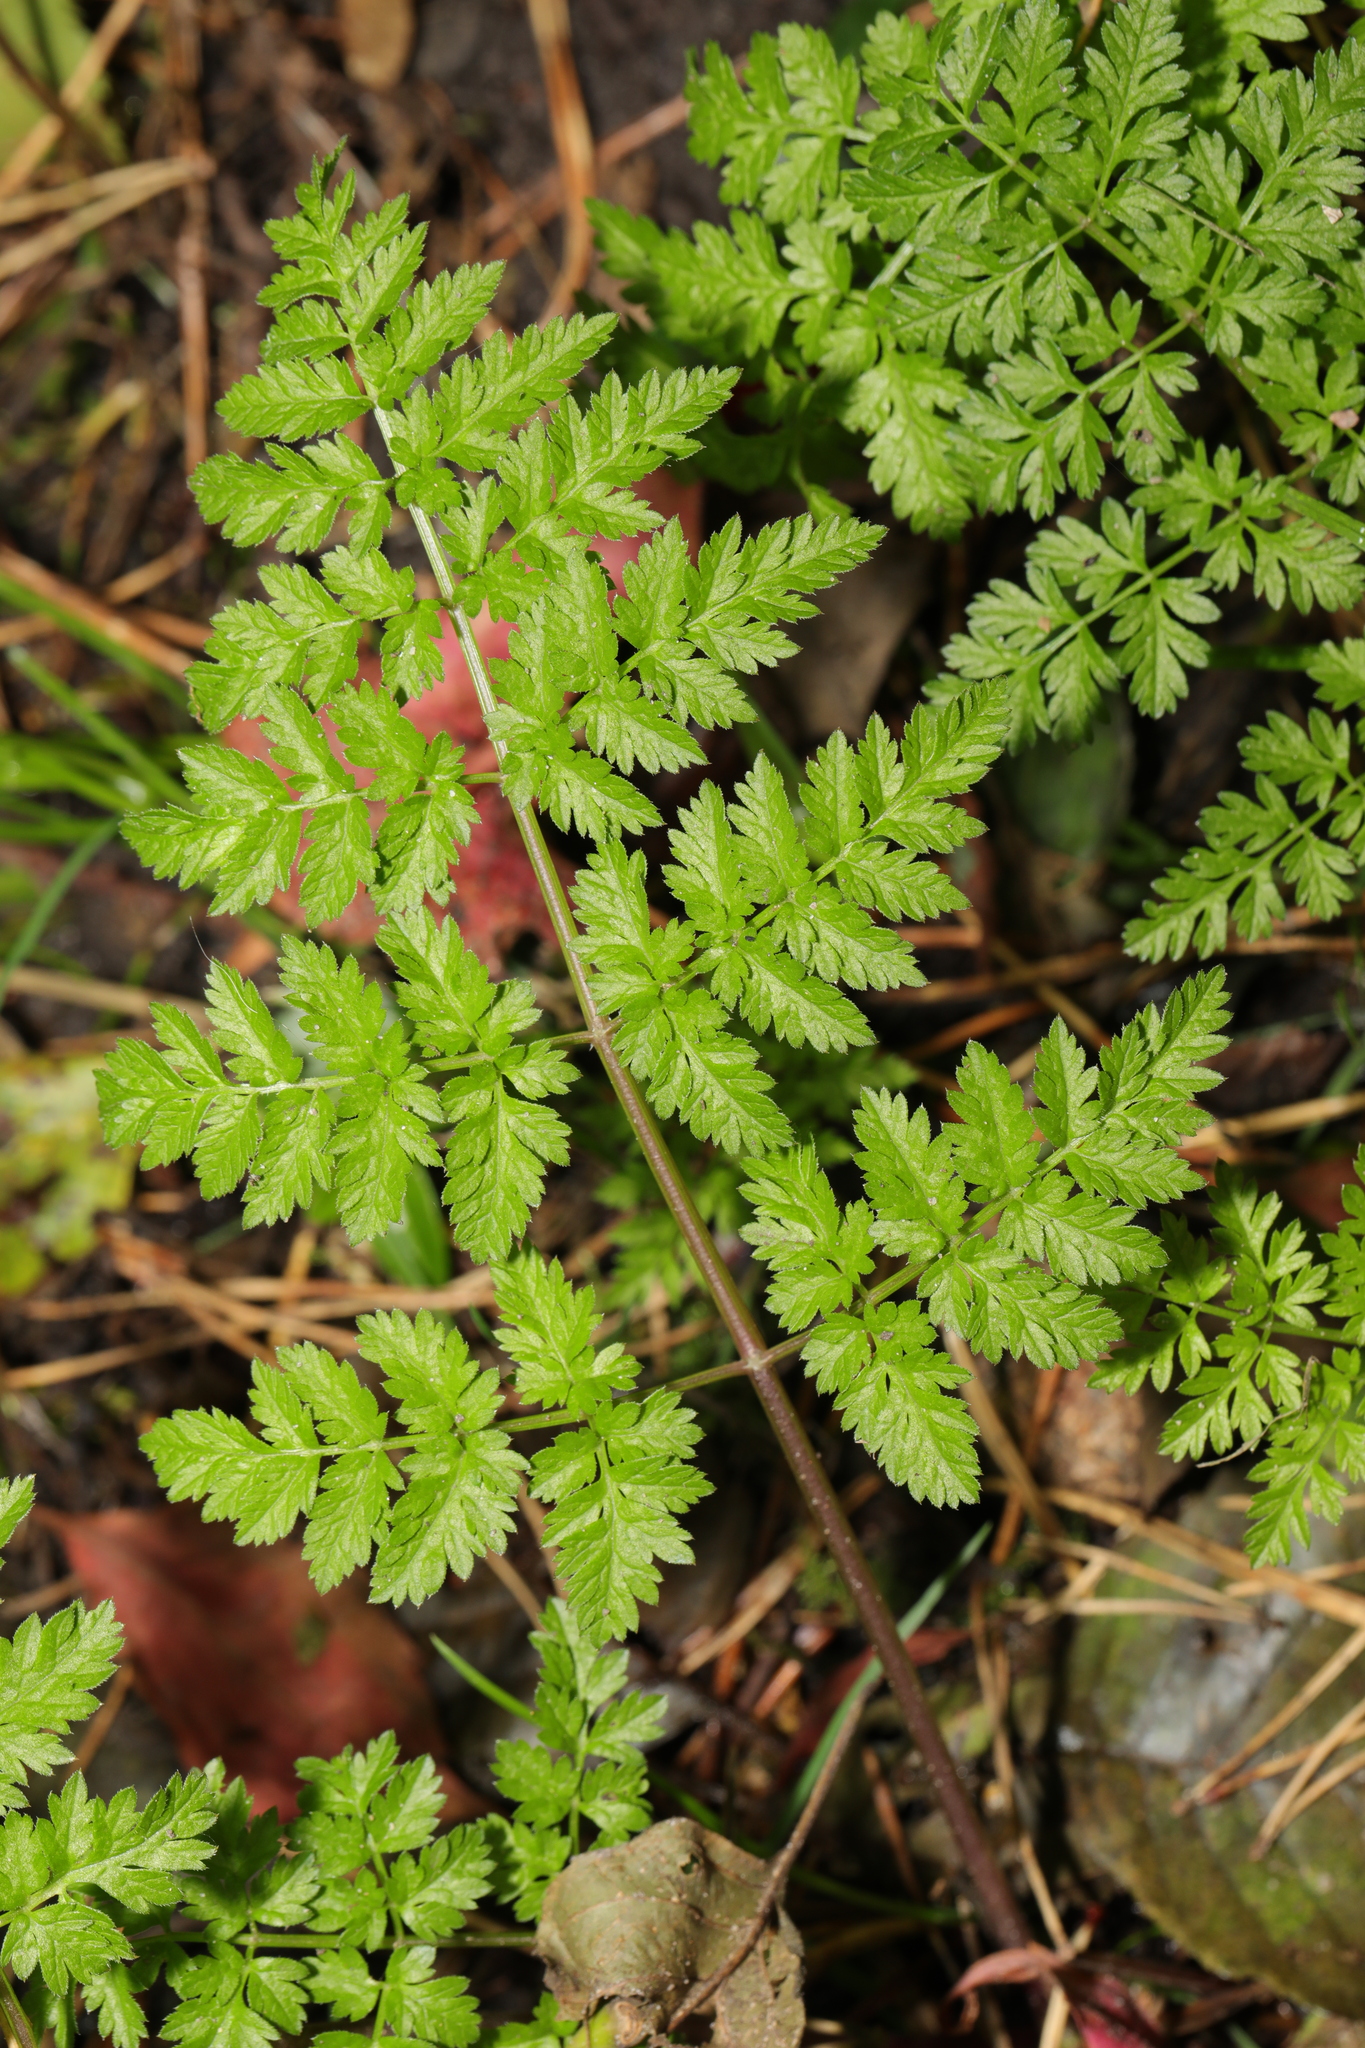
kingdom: Plantae
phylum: Tracheophyta
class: Magnoliopsida
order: Apiales
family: Apiaceae
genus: Anthriscus
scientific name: Anthriscus sylvestris
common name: Cow parsley
